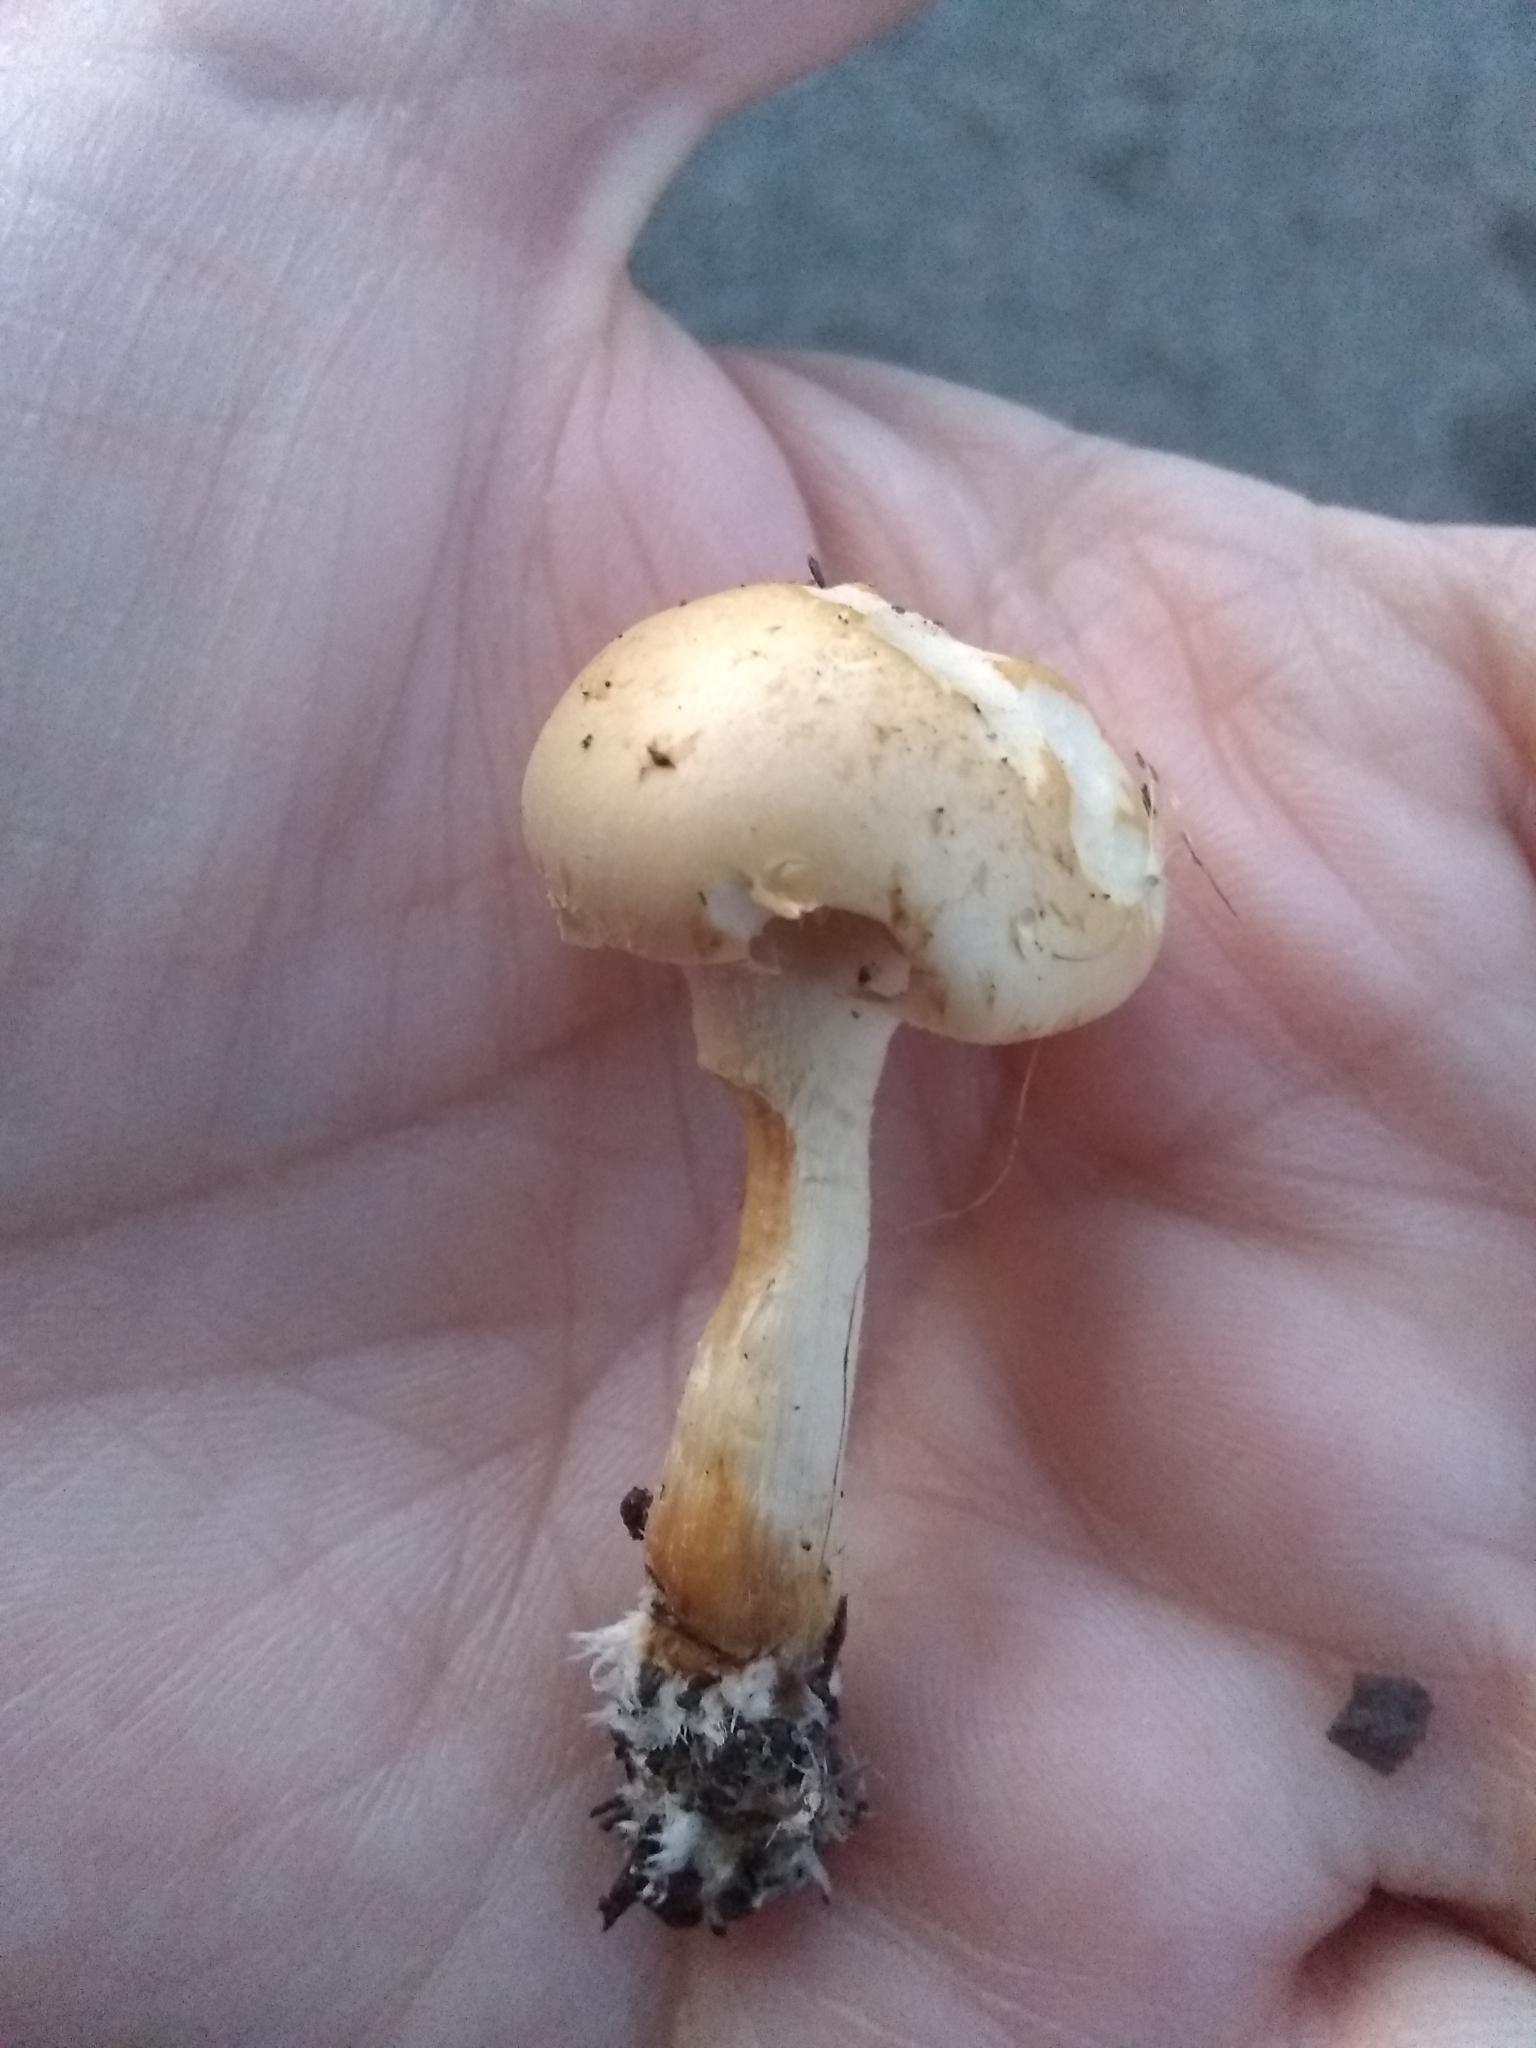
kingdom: Fungi
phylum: Basidiomycota
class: Agaricomycetes
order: Agaricales
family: Strophariaceae
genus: Agrocybe
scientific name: Agrocybe praecox
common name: Spring fieldcap
